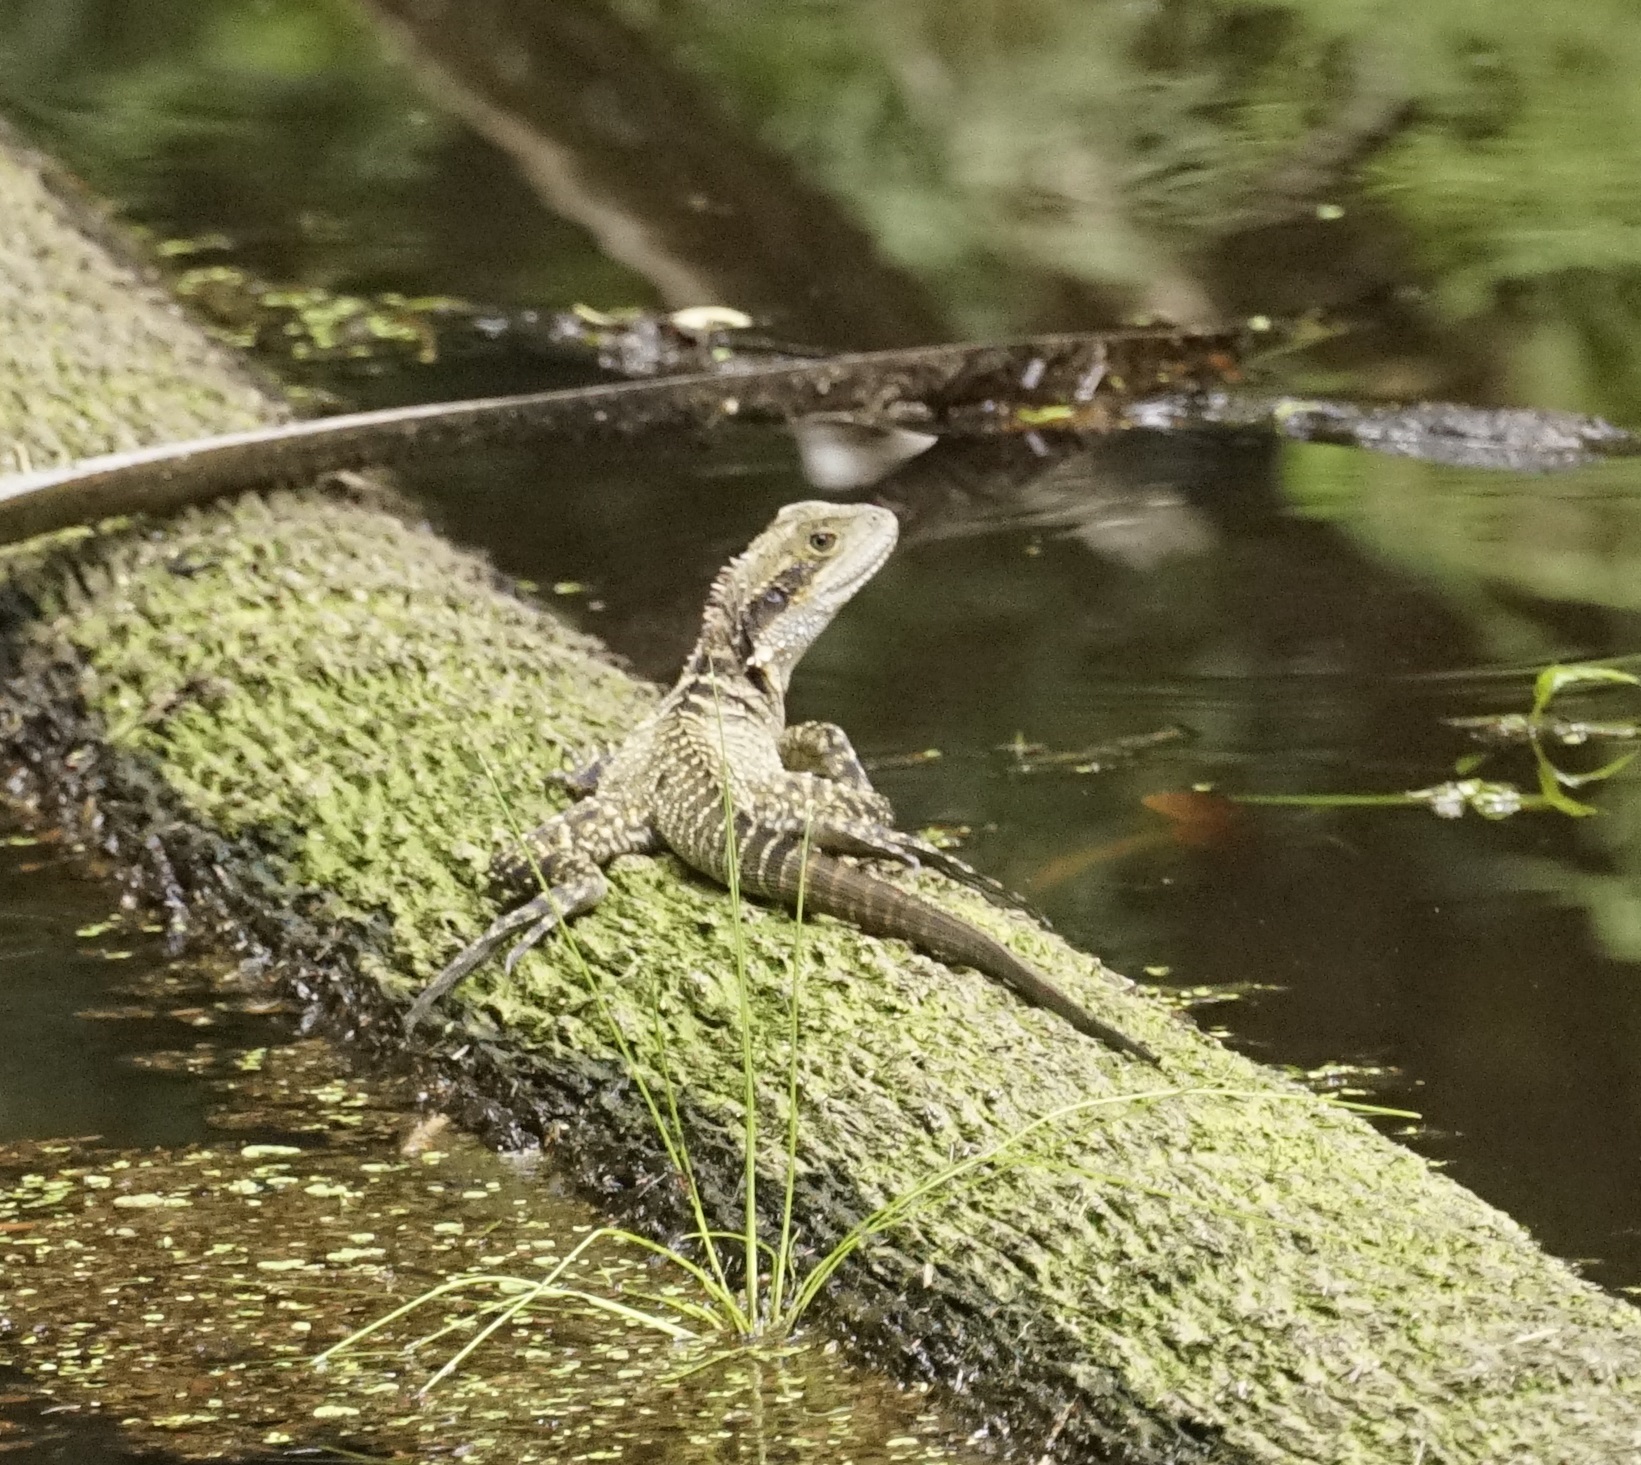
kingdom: Animalia
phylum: Chordata
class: Squamata
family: Agamidae
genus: Intellagama
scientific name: Intellagama lesueurii
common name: Eastern water dragon
